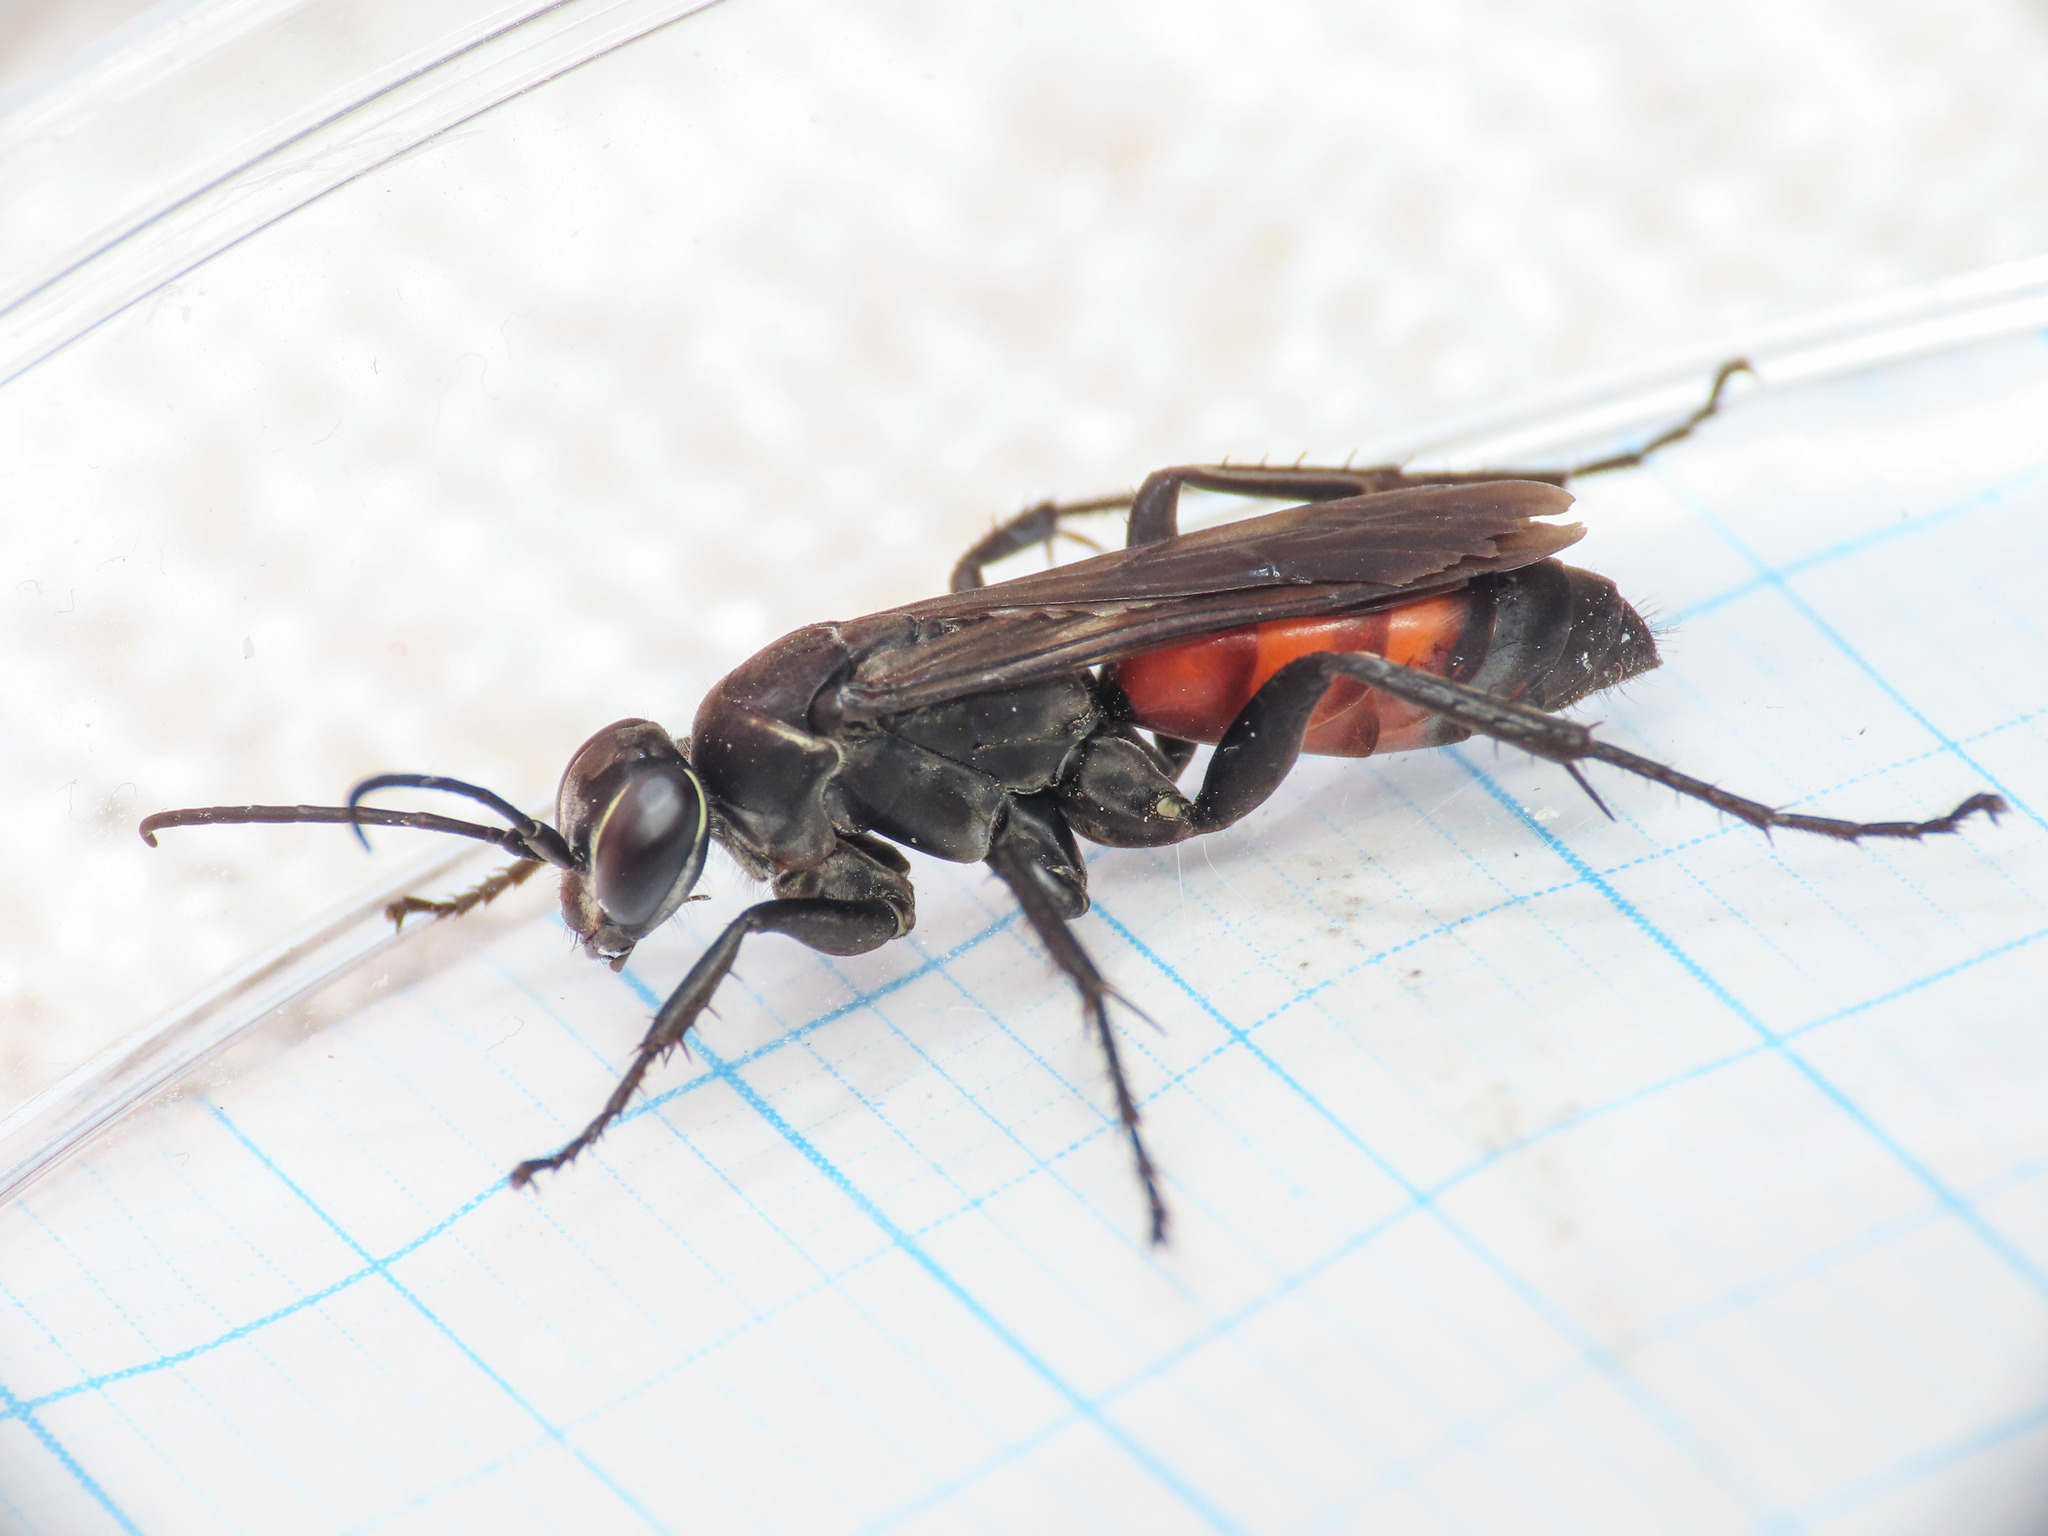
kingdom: Animalia
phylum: Arthropoda
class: Insecta
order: Hymenoptera
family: Pompilidae
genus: Anospilus
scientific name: Anospilus orbitalis
